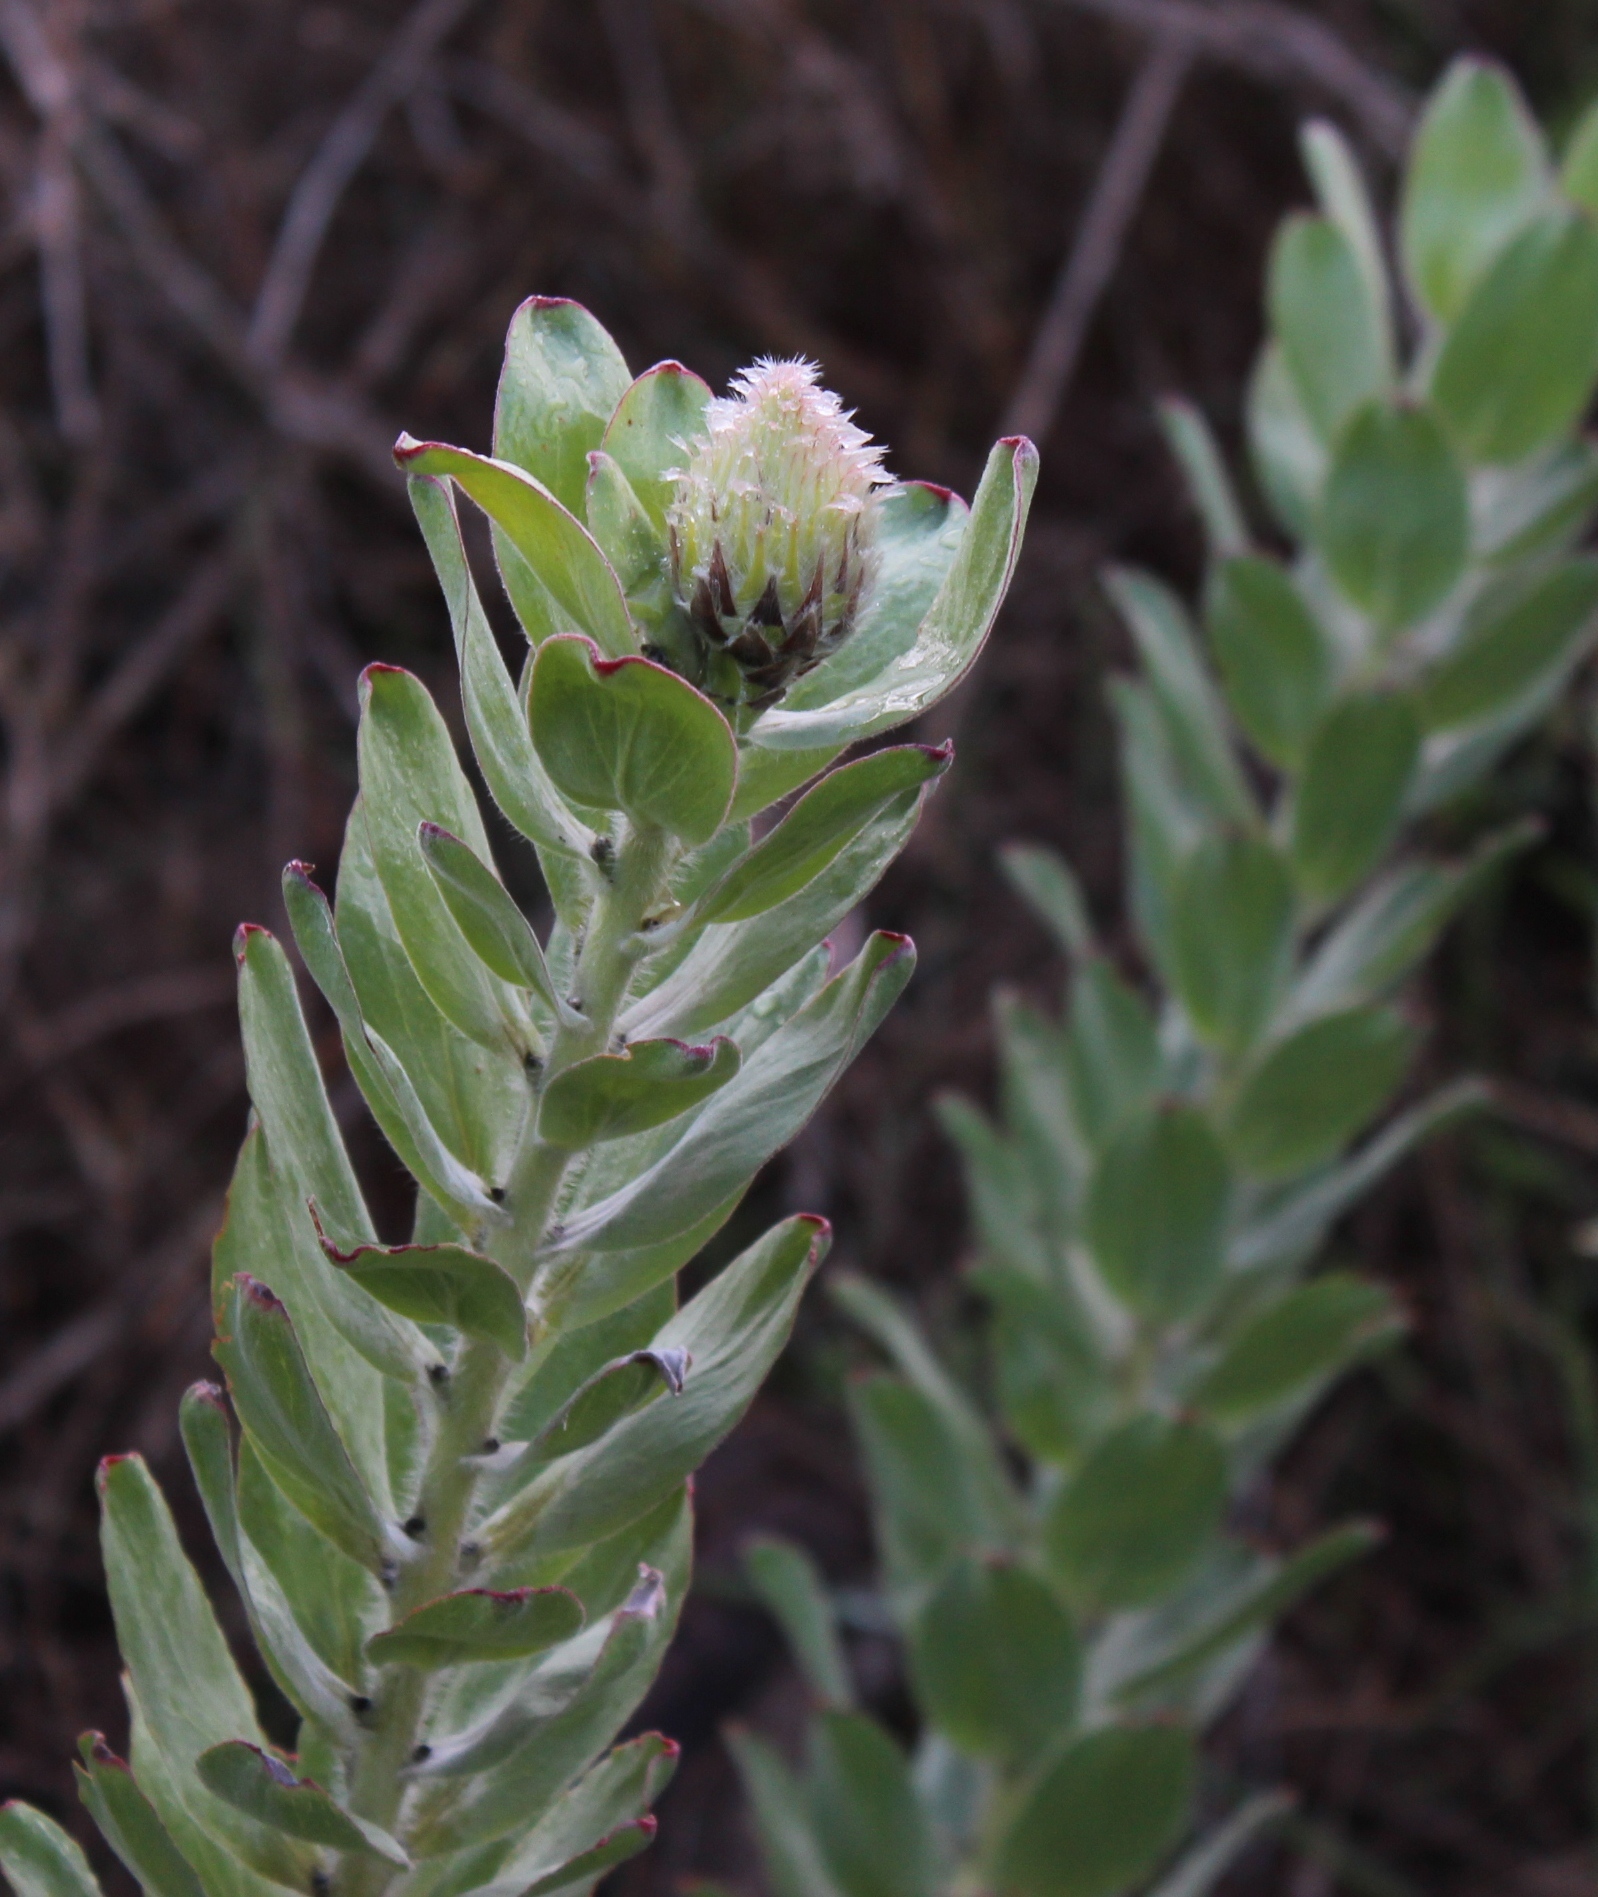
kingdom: Plantae
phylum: Tracheophyta
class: Magnoliopsida
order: Proteales
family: Proteaceae
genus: Leucospermum
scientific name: Leucospermum grandiflorum
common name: Grey-leaf fountain pincushion
